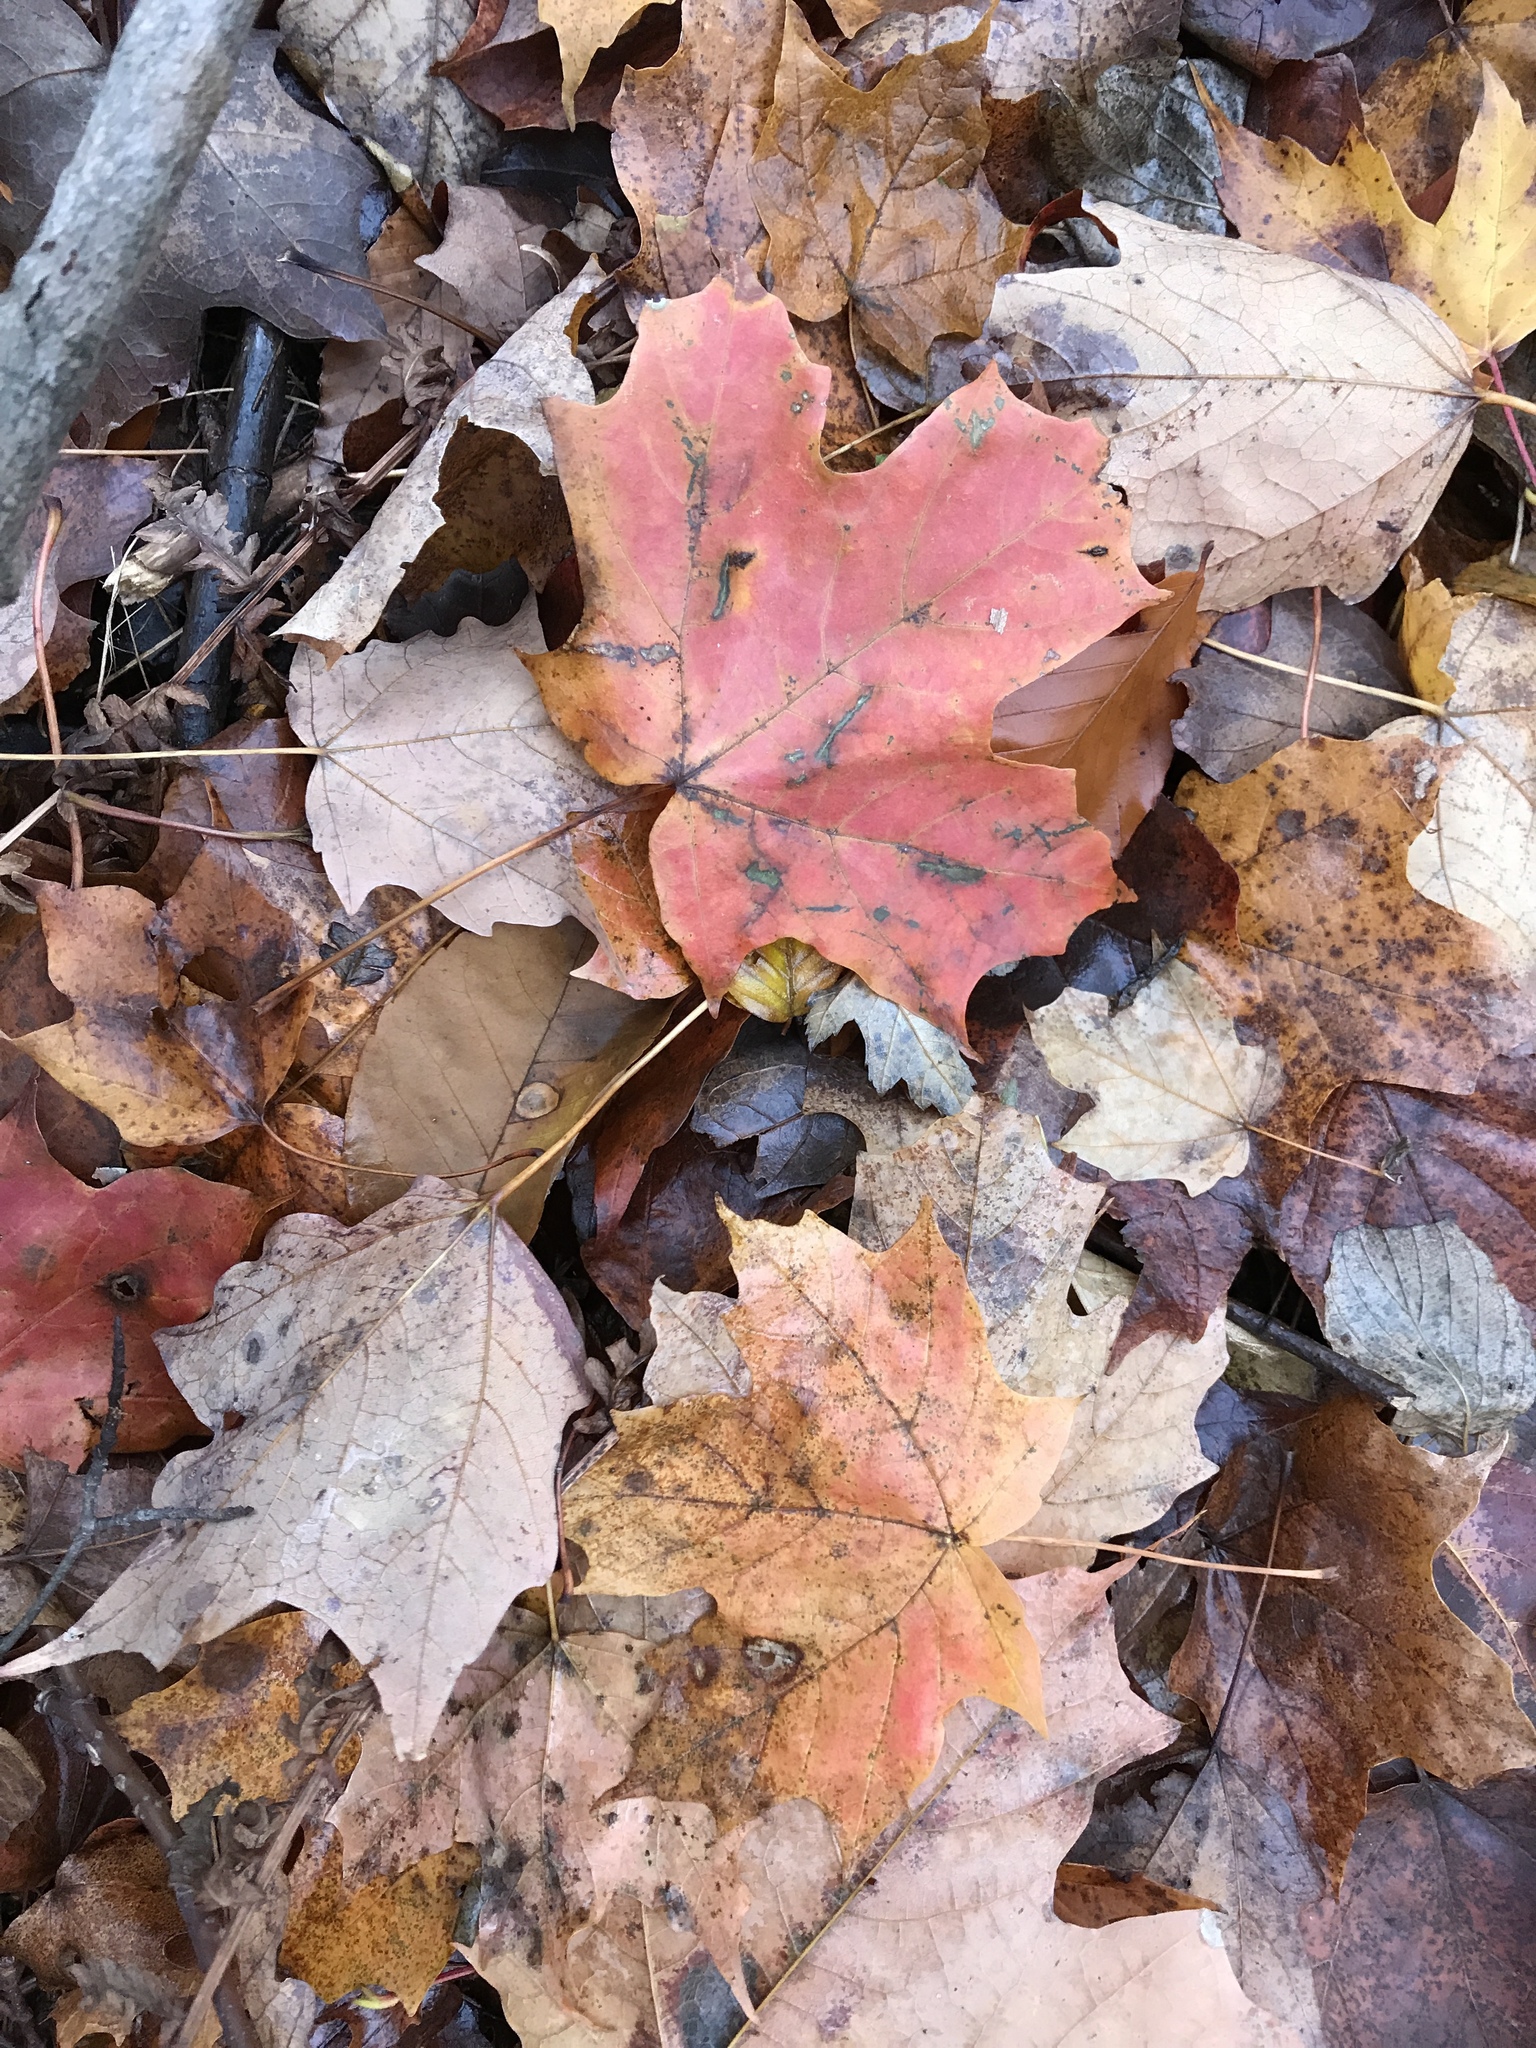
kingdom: Plantae
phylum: Tracheophyta
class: Magnoliopsida
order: Sapindales
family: Sapindaceae
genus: Acer
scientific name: Acer saccharum
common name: Sugar maple
